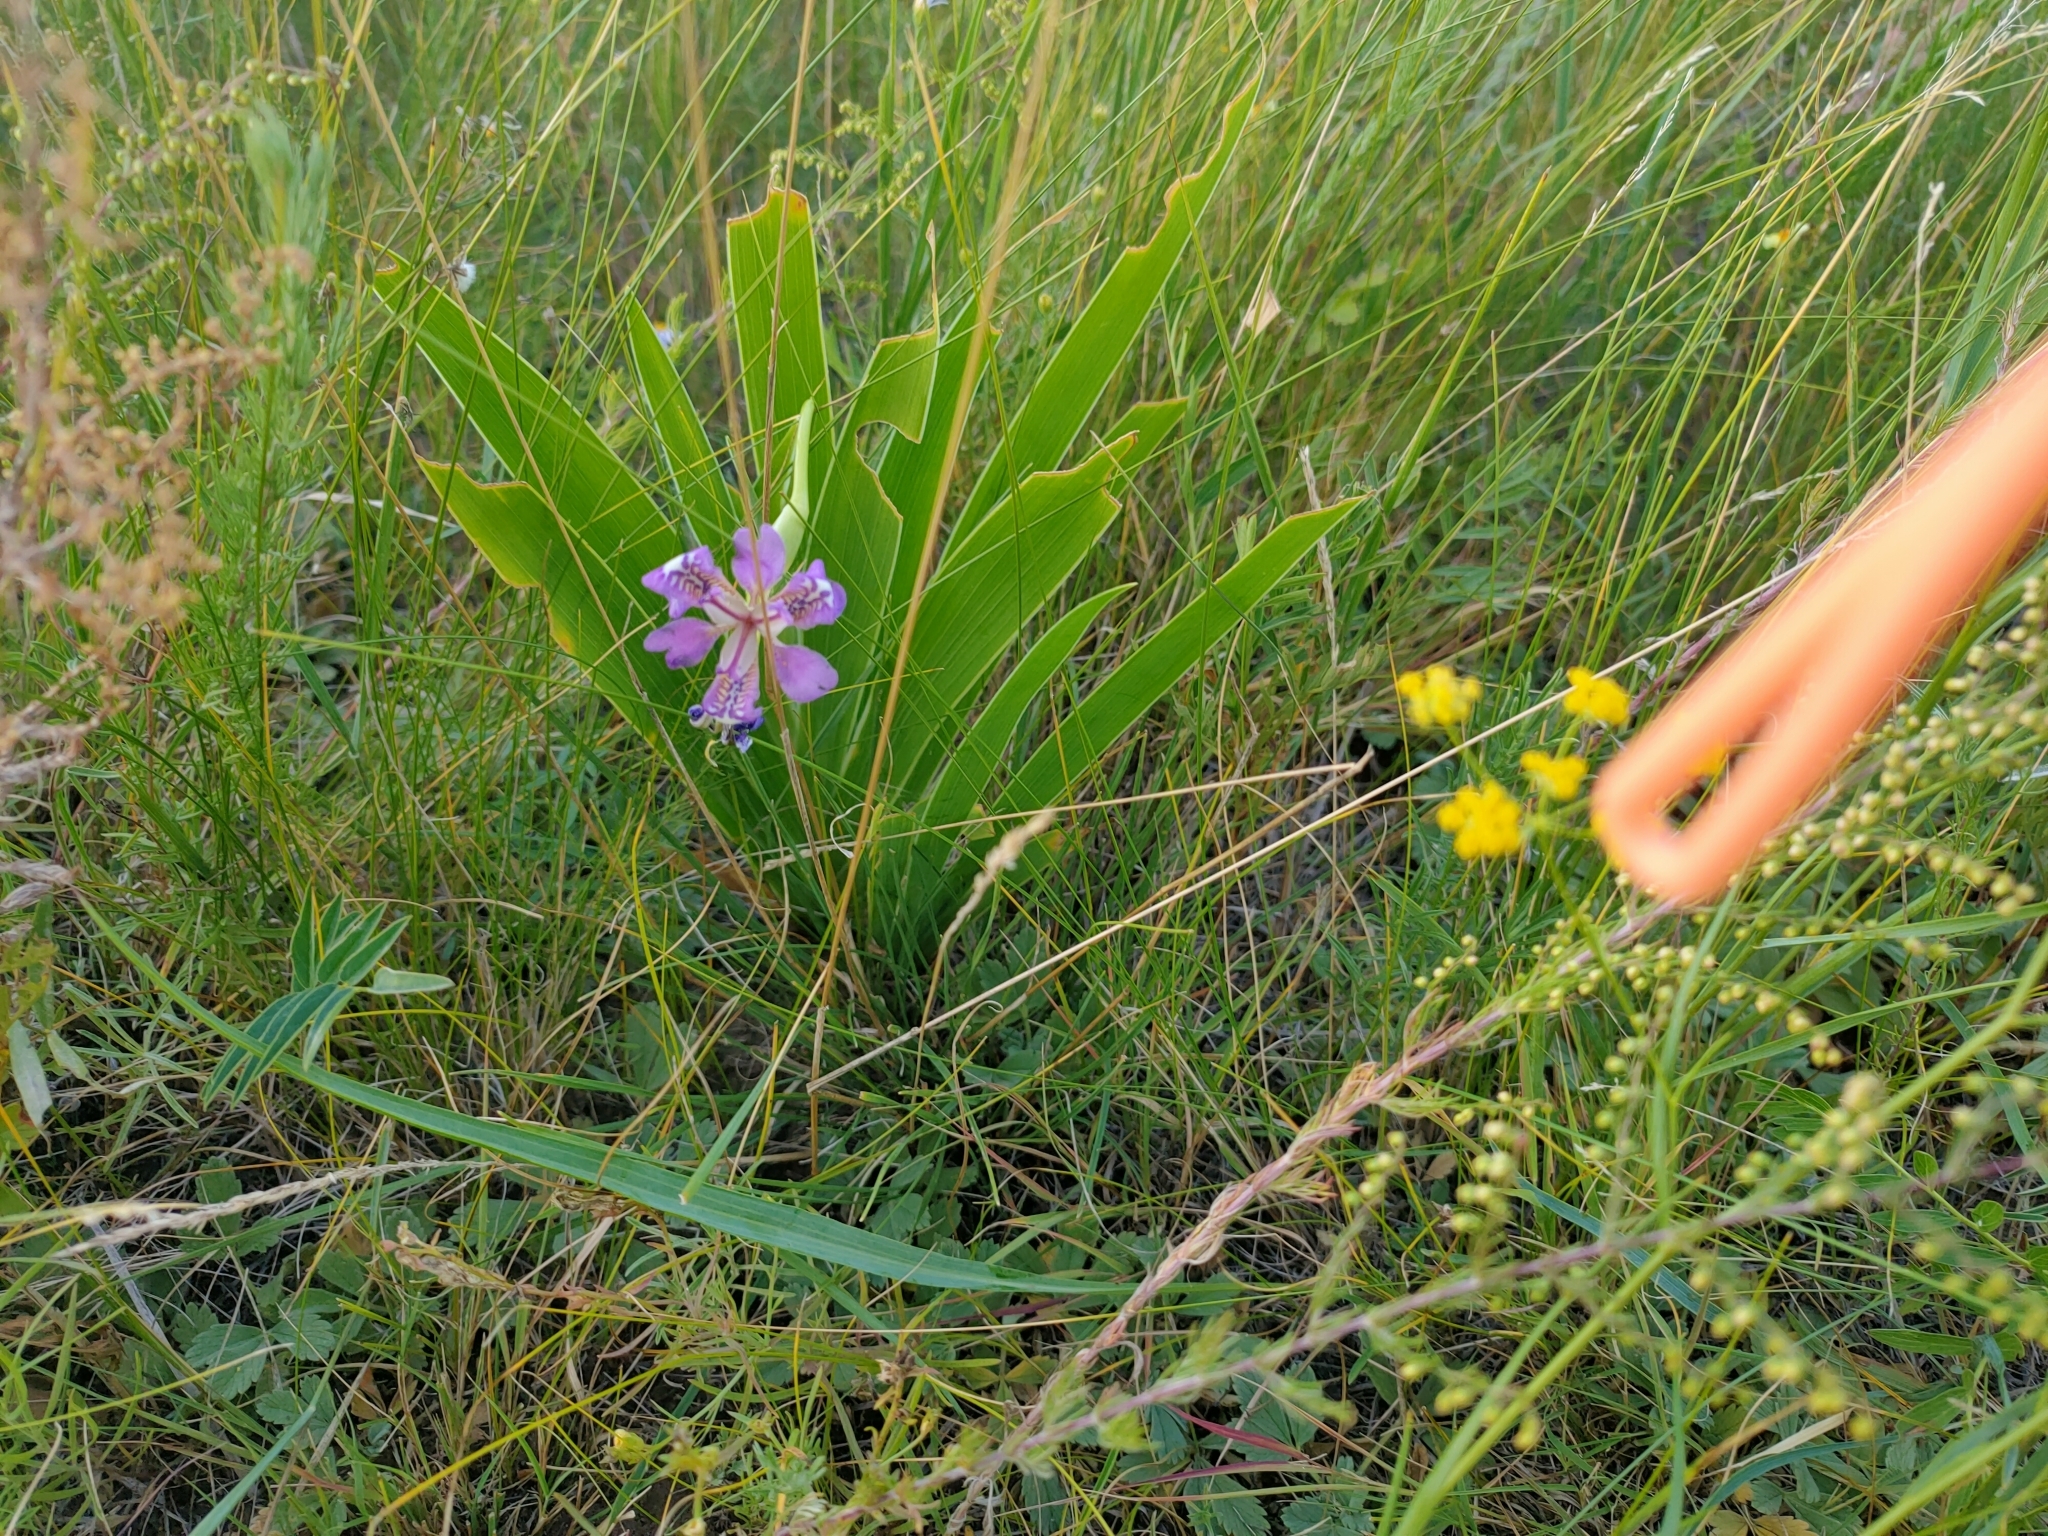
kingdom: Plantae
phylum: Tracheophyta
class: Liliopsida
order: Asparagales
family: Iridaceae
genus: Iris
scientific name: Iris dichotoma
